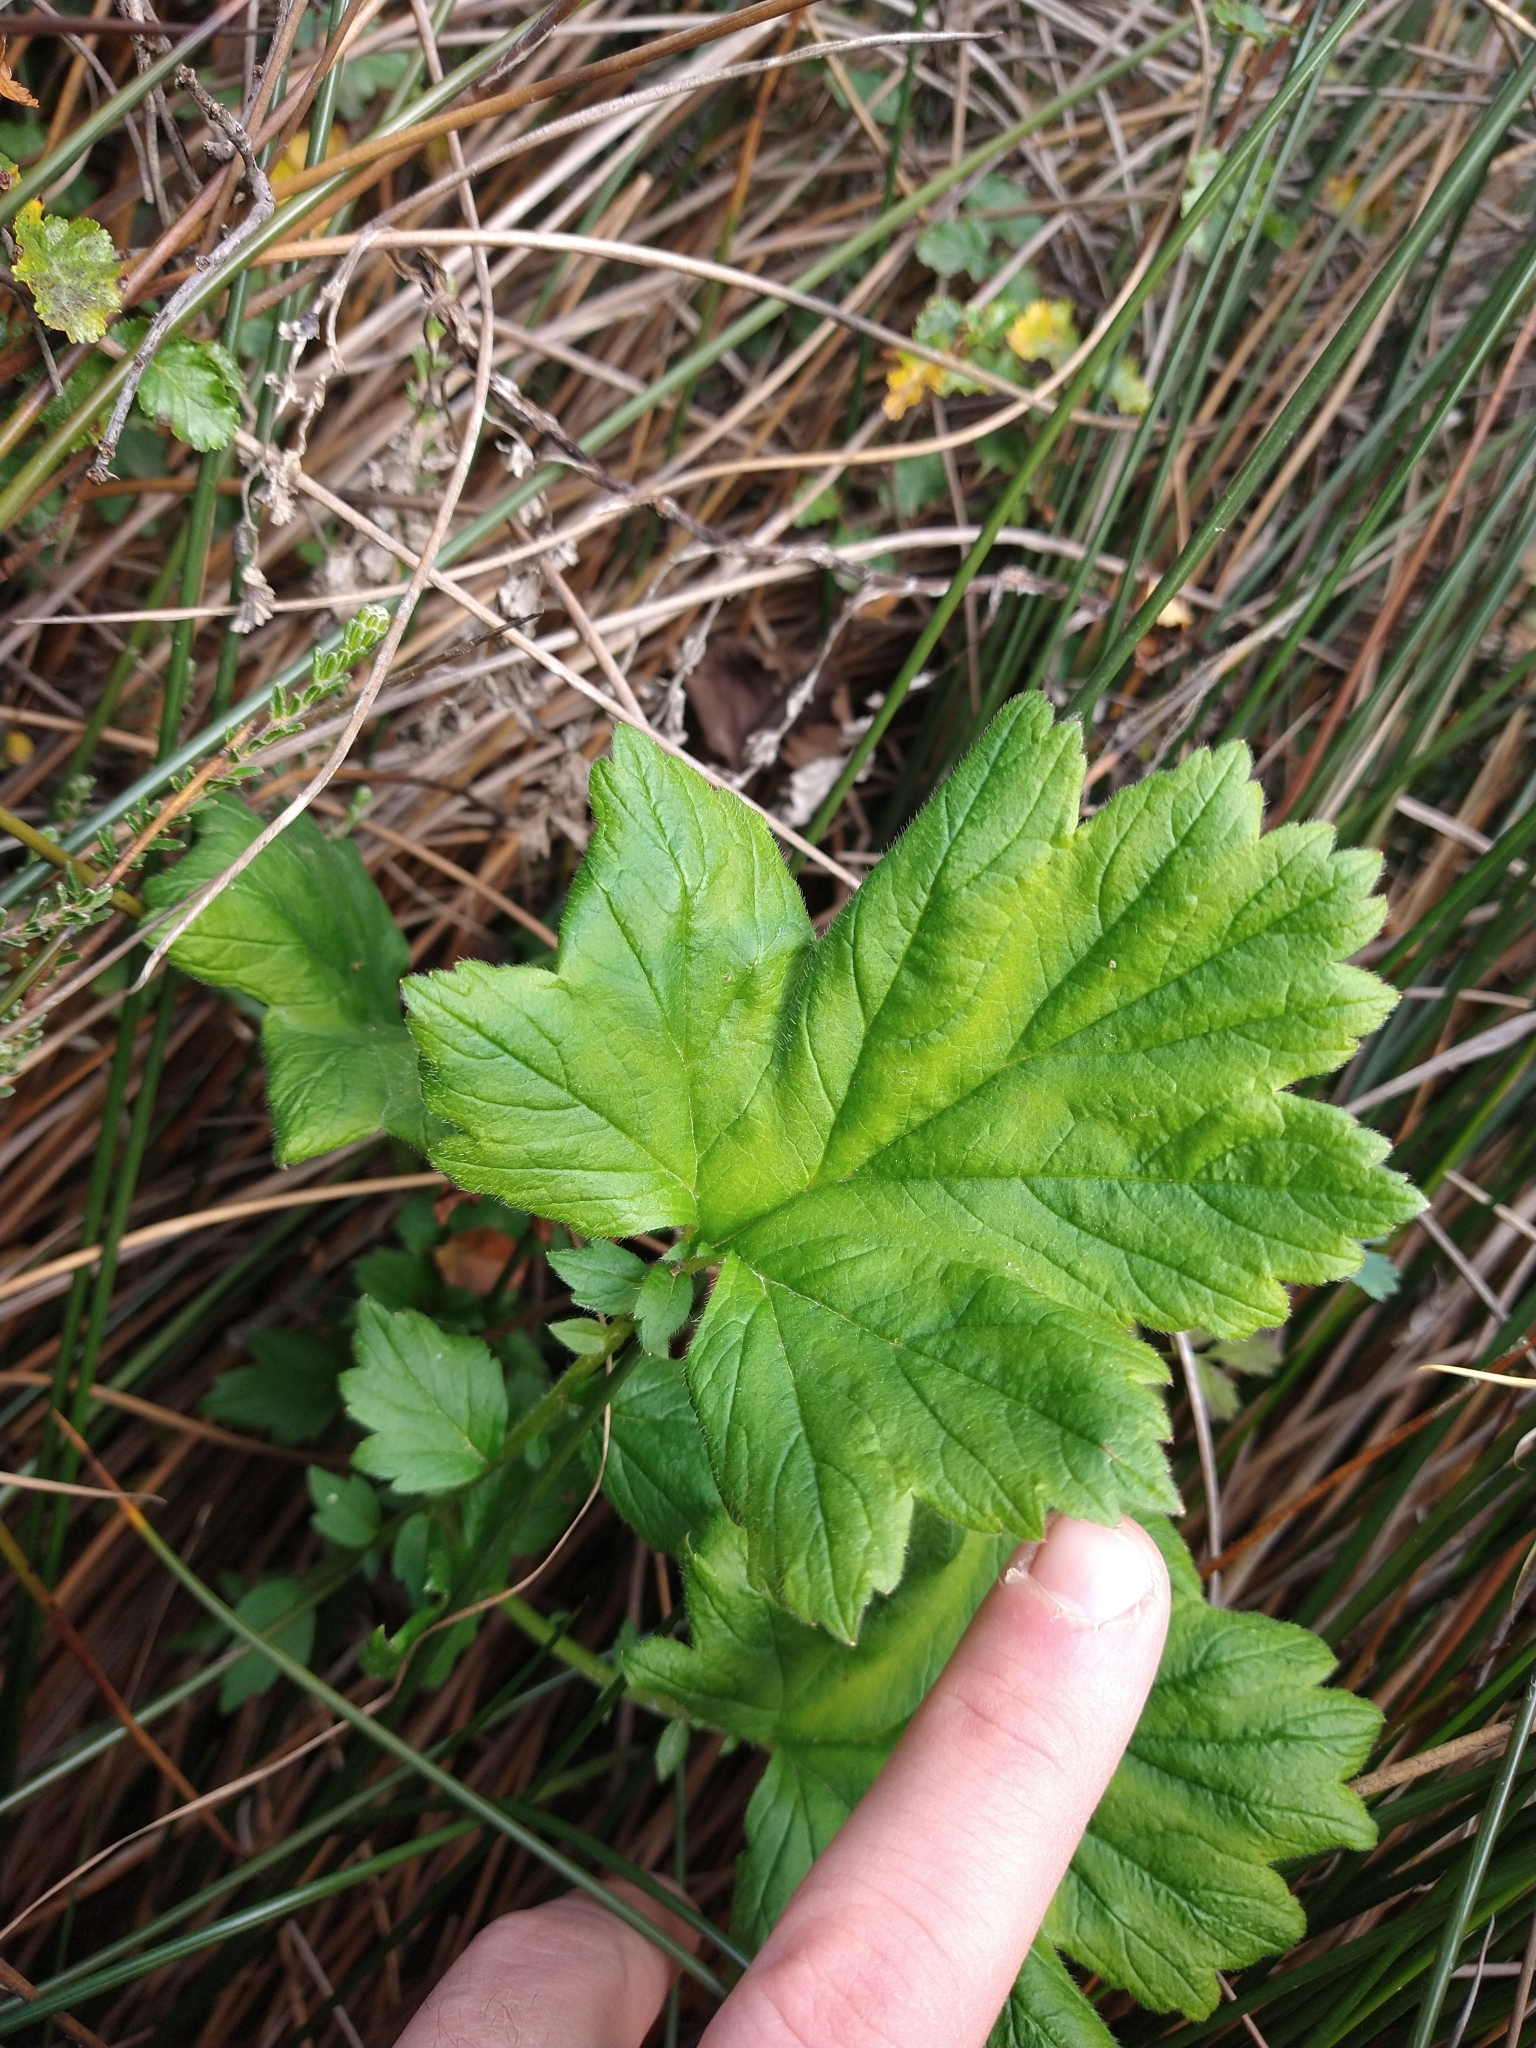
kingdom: Plantae
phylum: Tracheophyta
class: Magnoliopsida
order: Saxifragales
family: Grossulariaceae
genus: Ribes
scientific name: Ribes magellanicum
